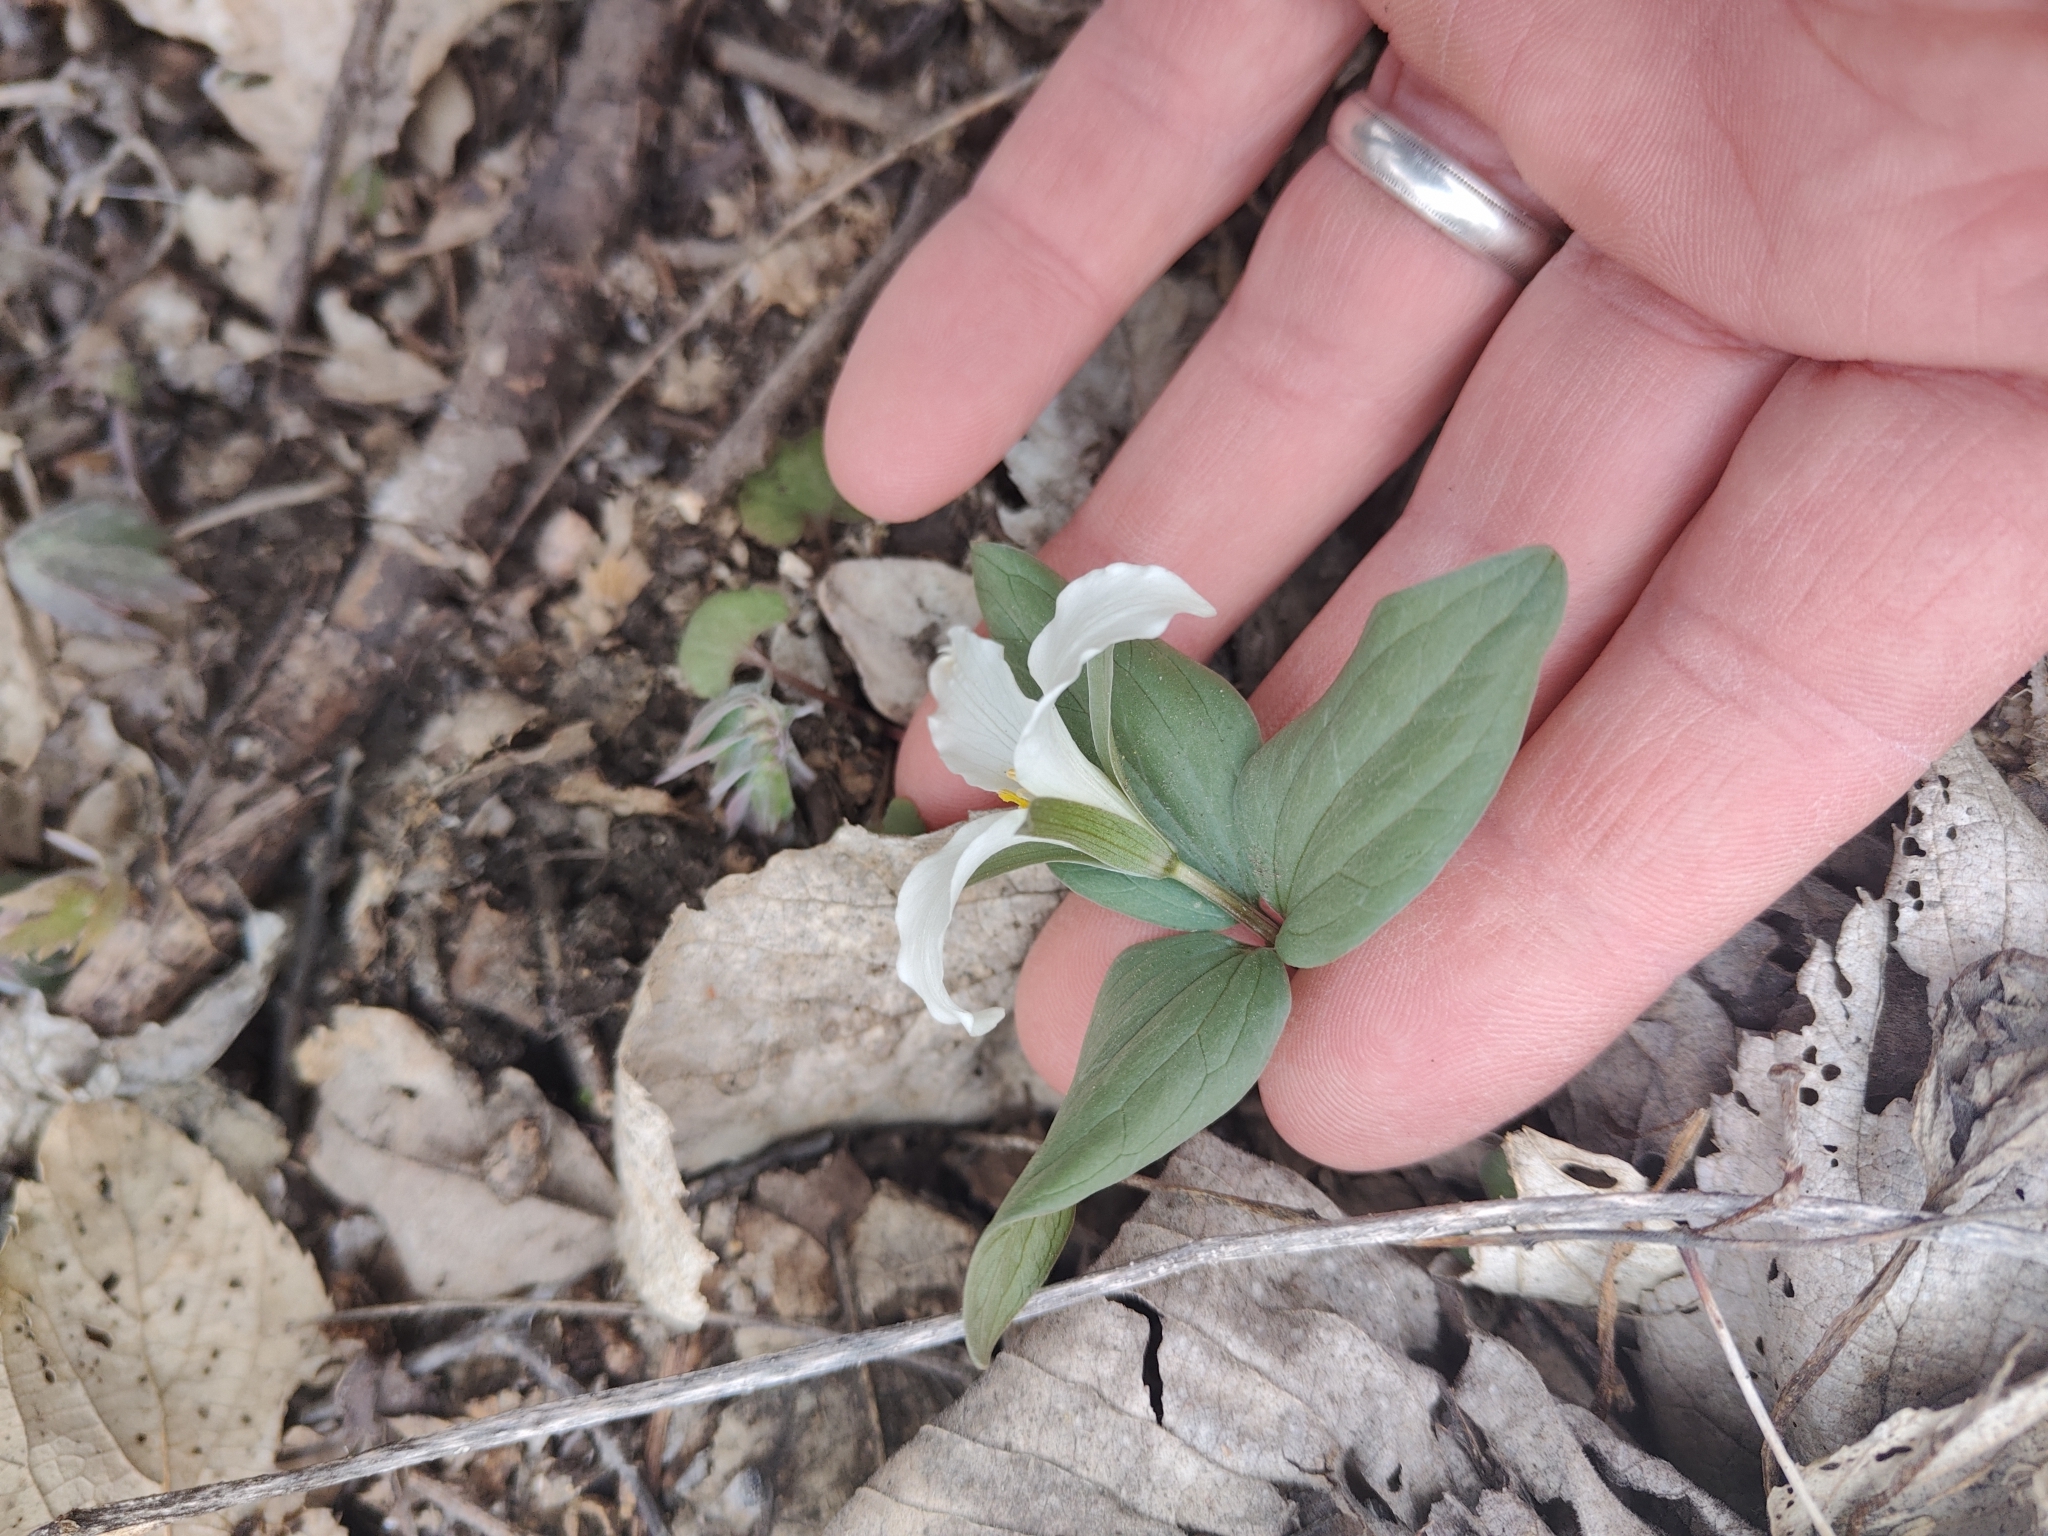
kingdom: Plantae
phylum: Tracheophyta
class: Liliopsida
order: Liliales
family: Melanthiaceae
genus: Trillium
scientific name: Trillium nivale
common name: Dwarf white trillium
